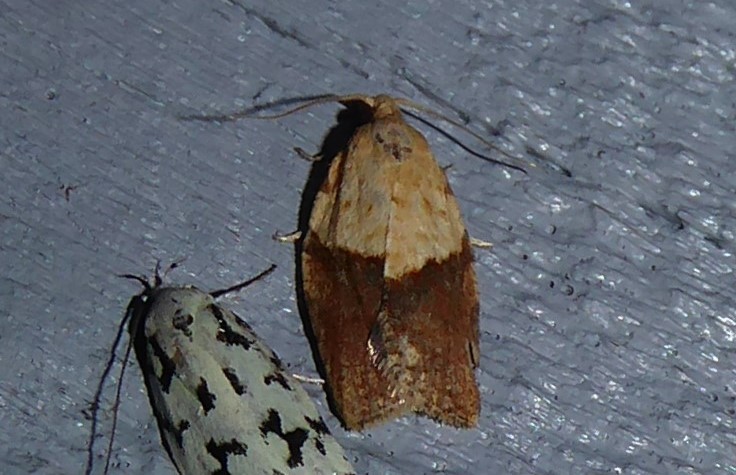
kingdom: Animalia
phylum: Arthropoda
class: Insecta
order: Lepidoptera
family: Tortricidae
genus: Epiphyas
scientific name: Epiphyas postvittana
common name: Light brown apple moth
